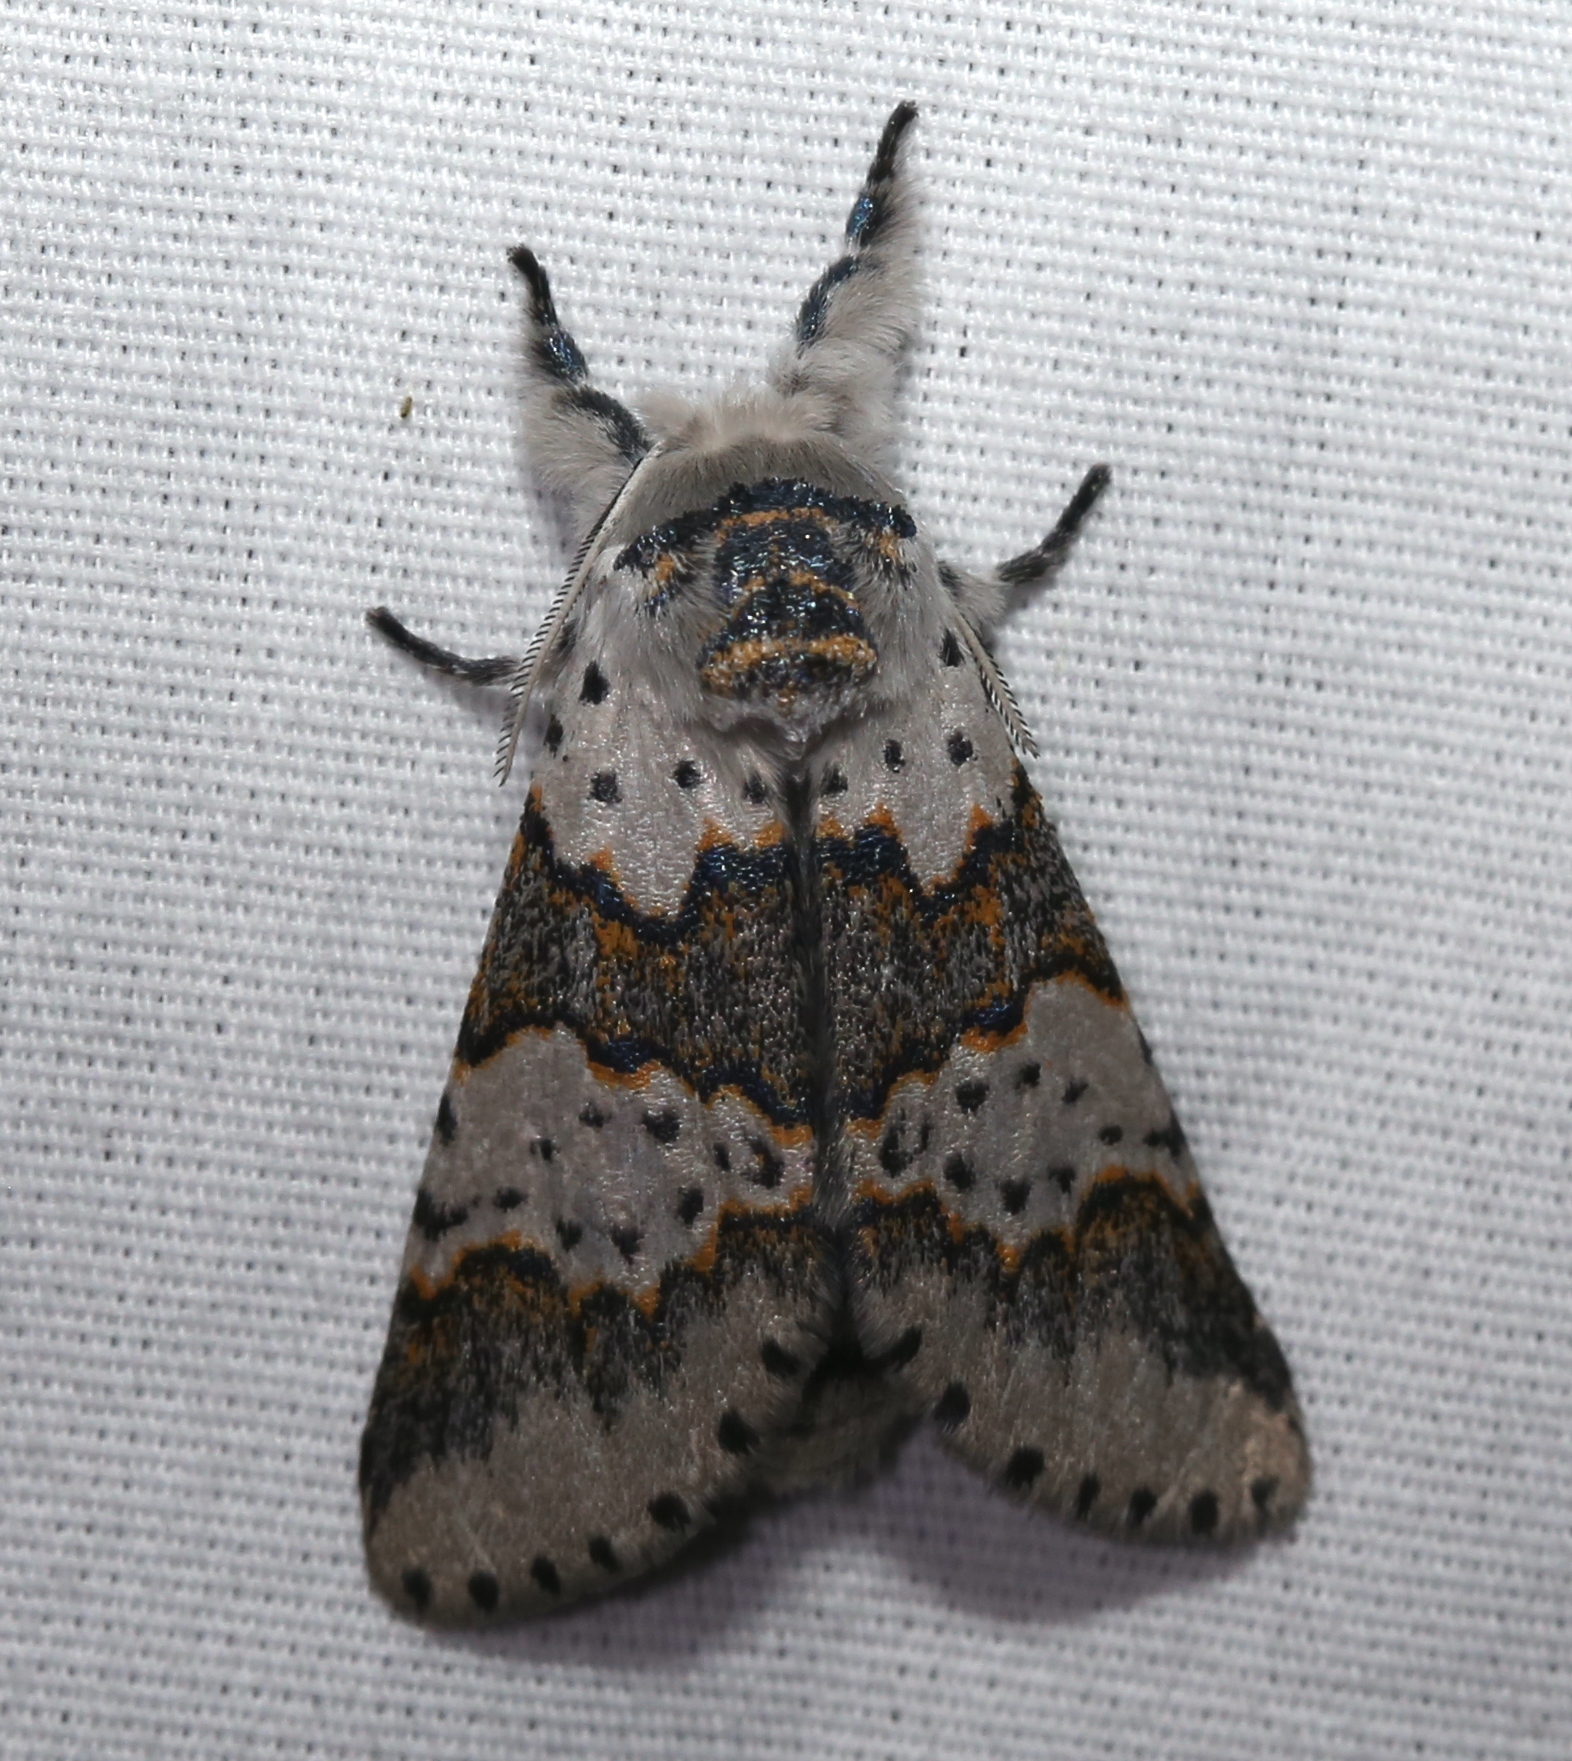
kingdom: Animalia
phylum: Arthropoda
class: Insecta
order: Lepidoptera
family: Notodontidae
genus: Furcula
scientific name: Furcula borealis
